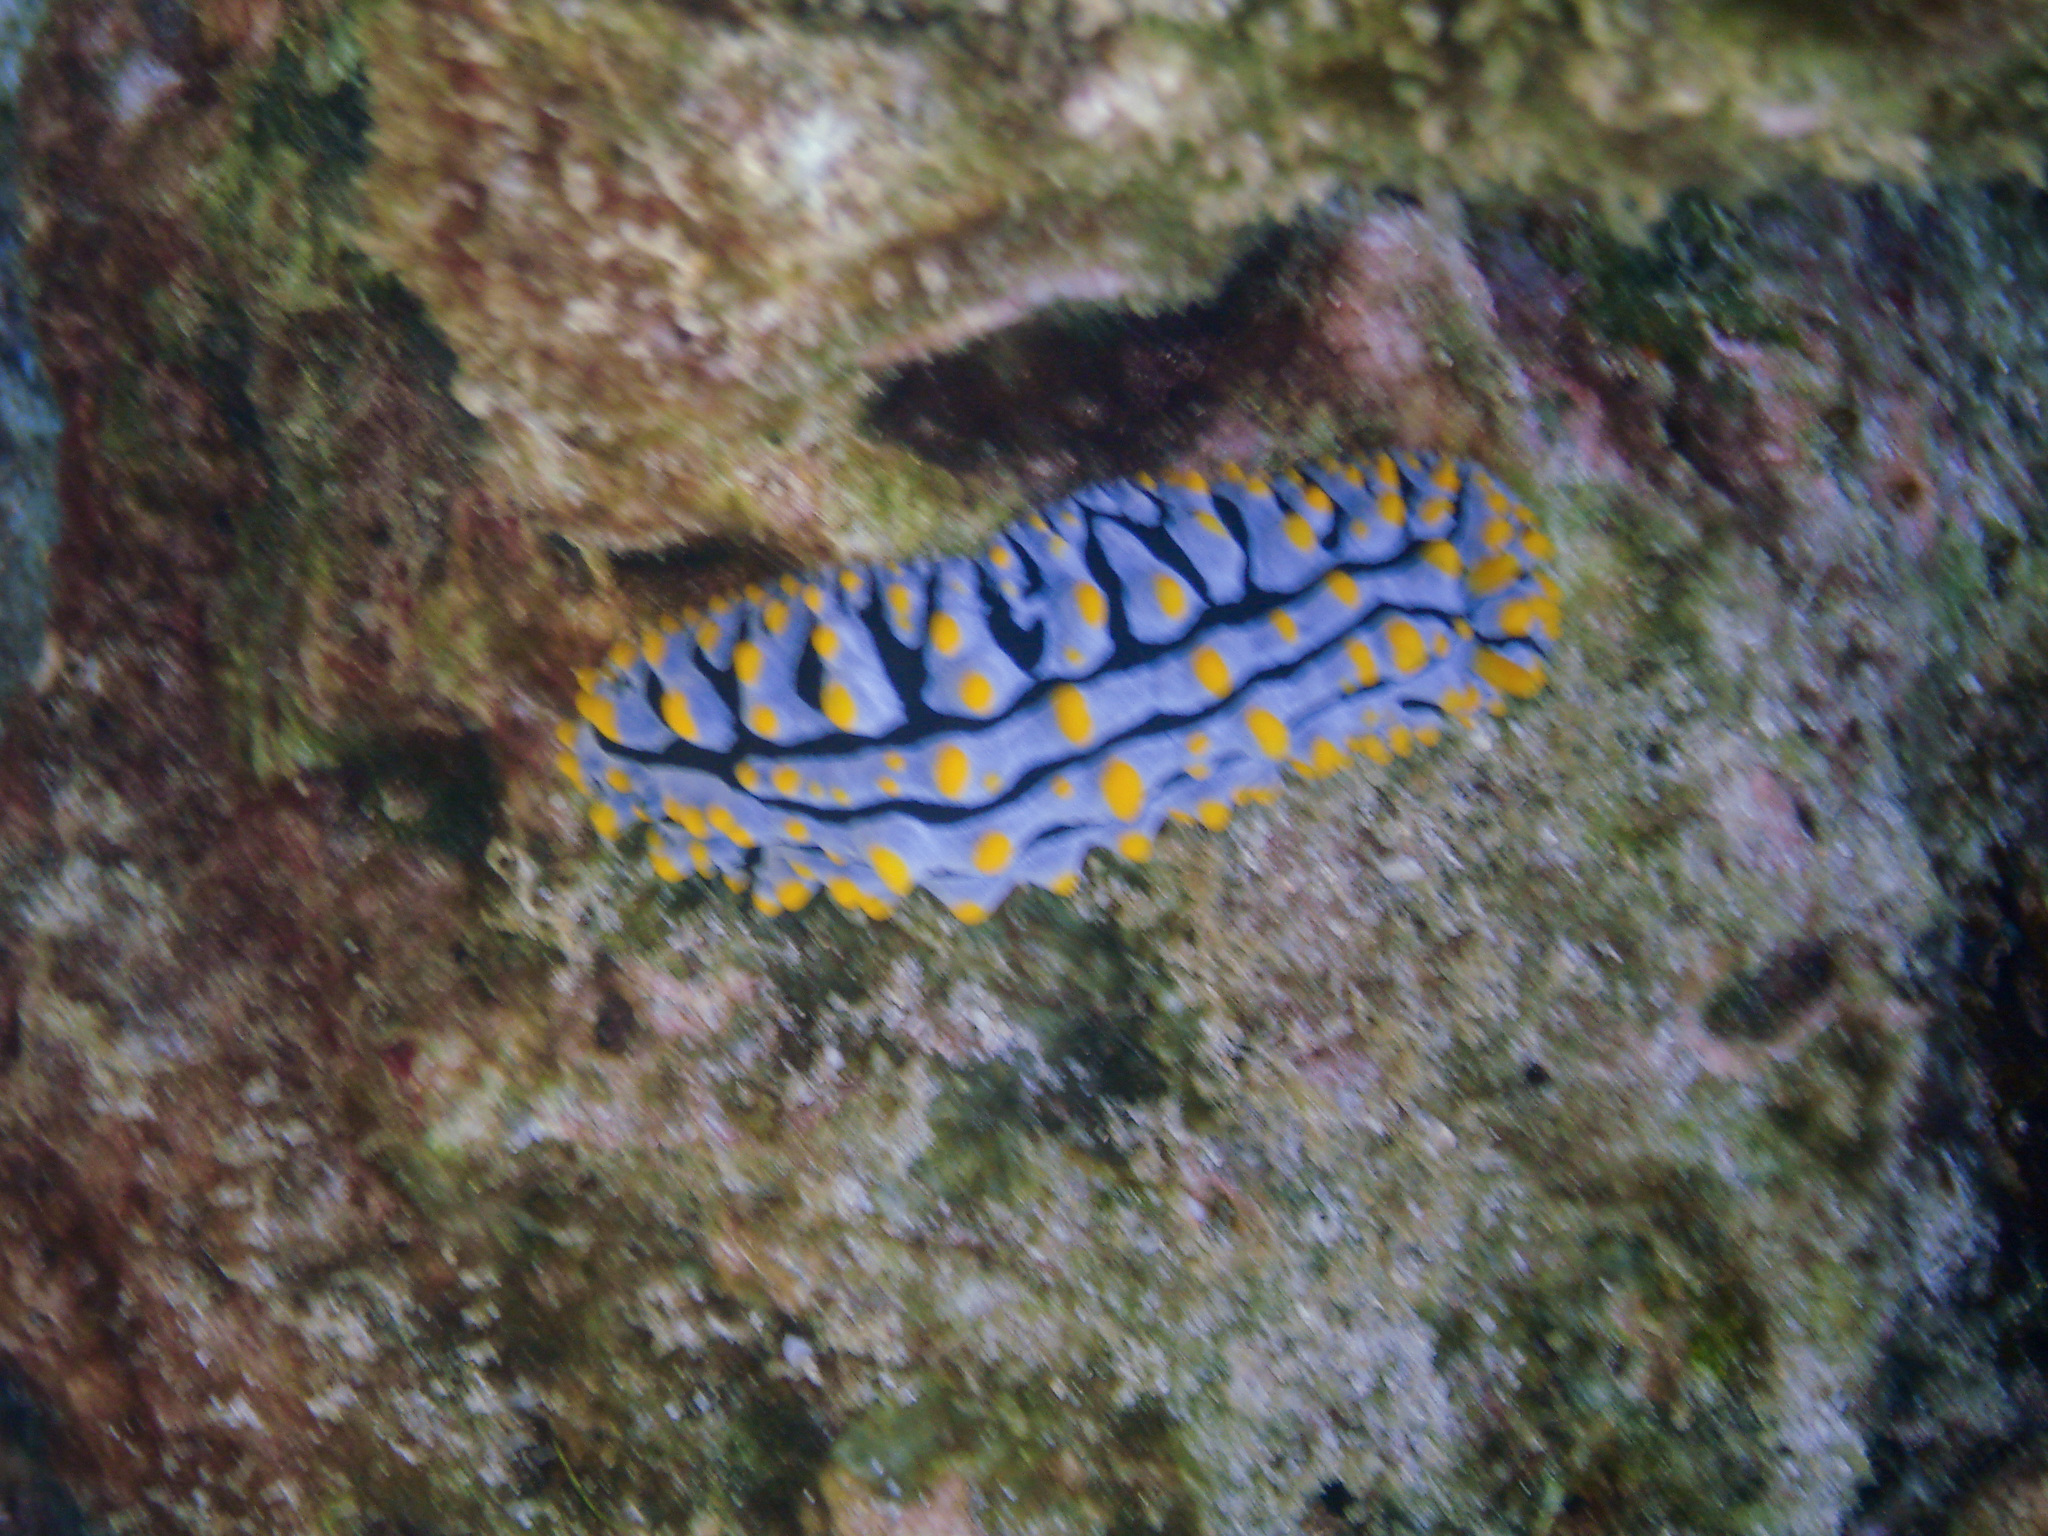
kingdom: Animalia
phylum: Mollusca
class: Gastropoda
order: Nudibranchia
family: Phyllidiidae
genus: Phyllidia
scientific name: Phyllidia varicosa
